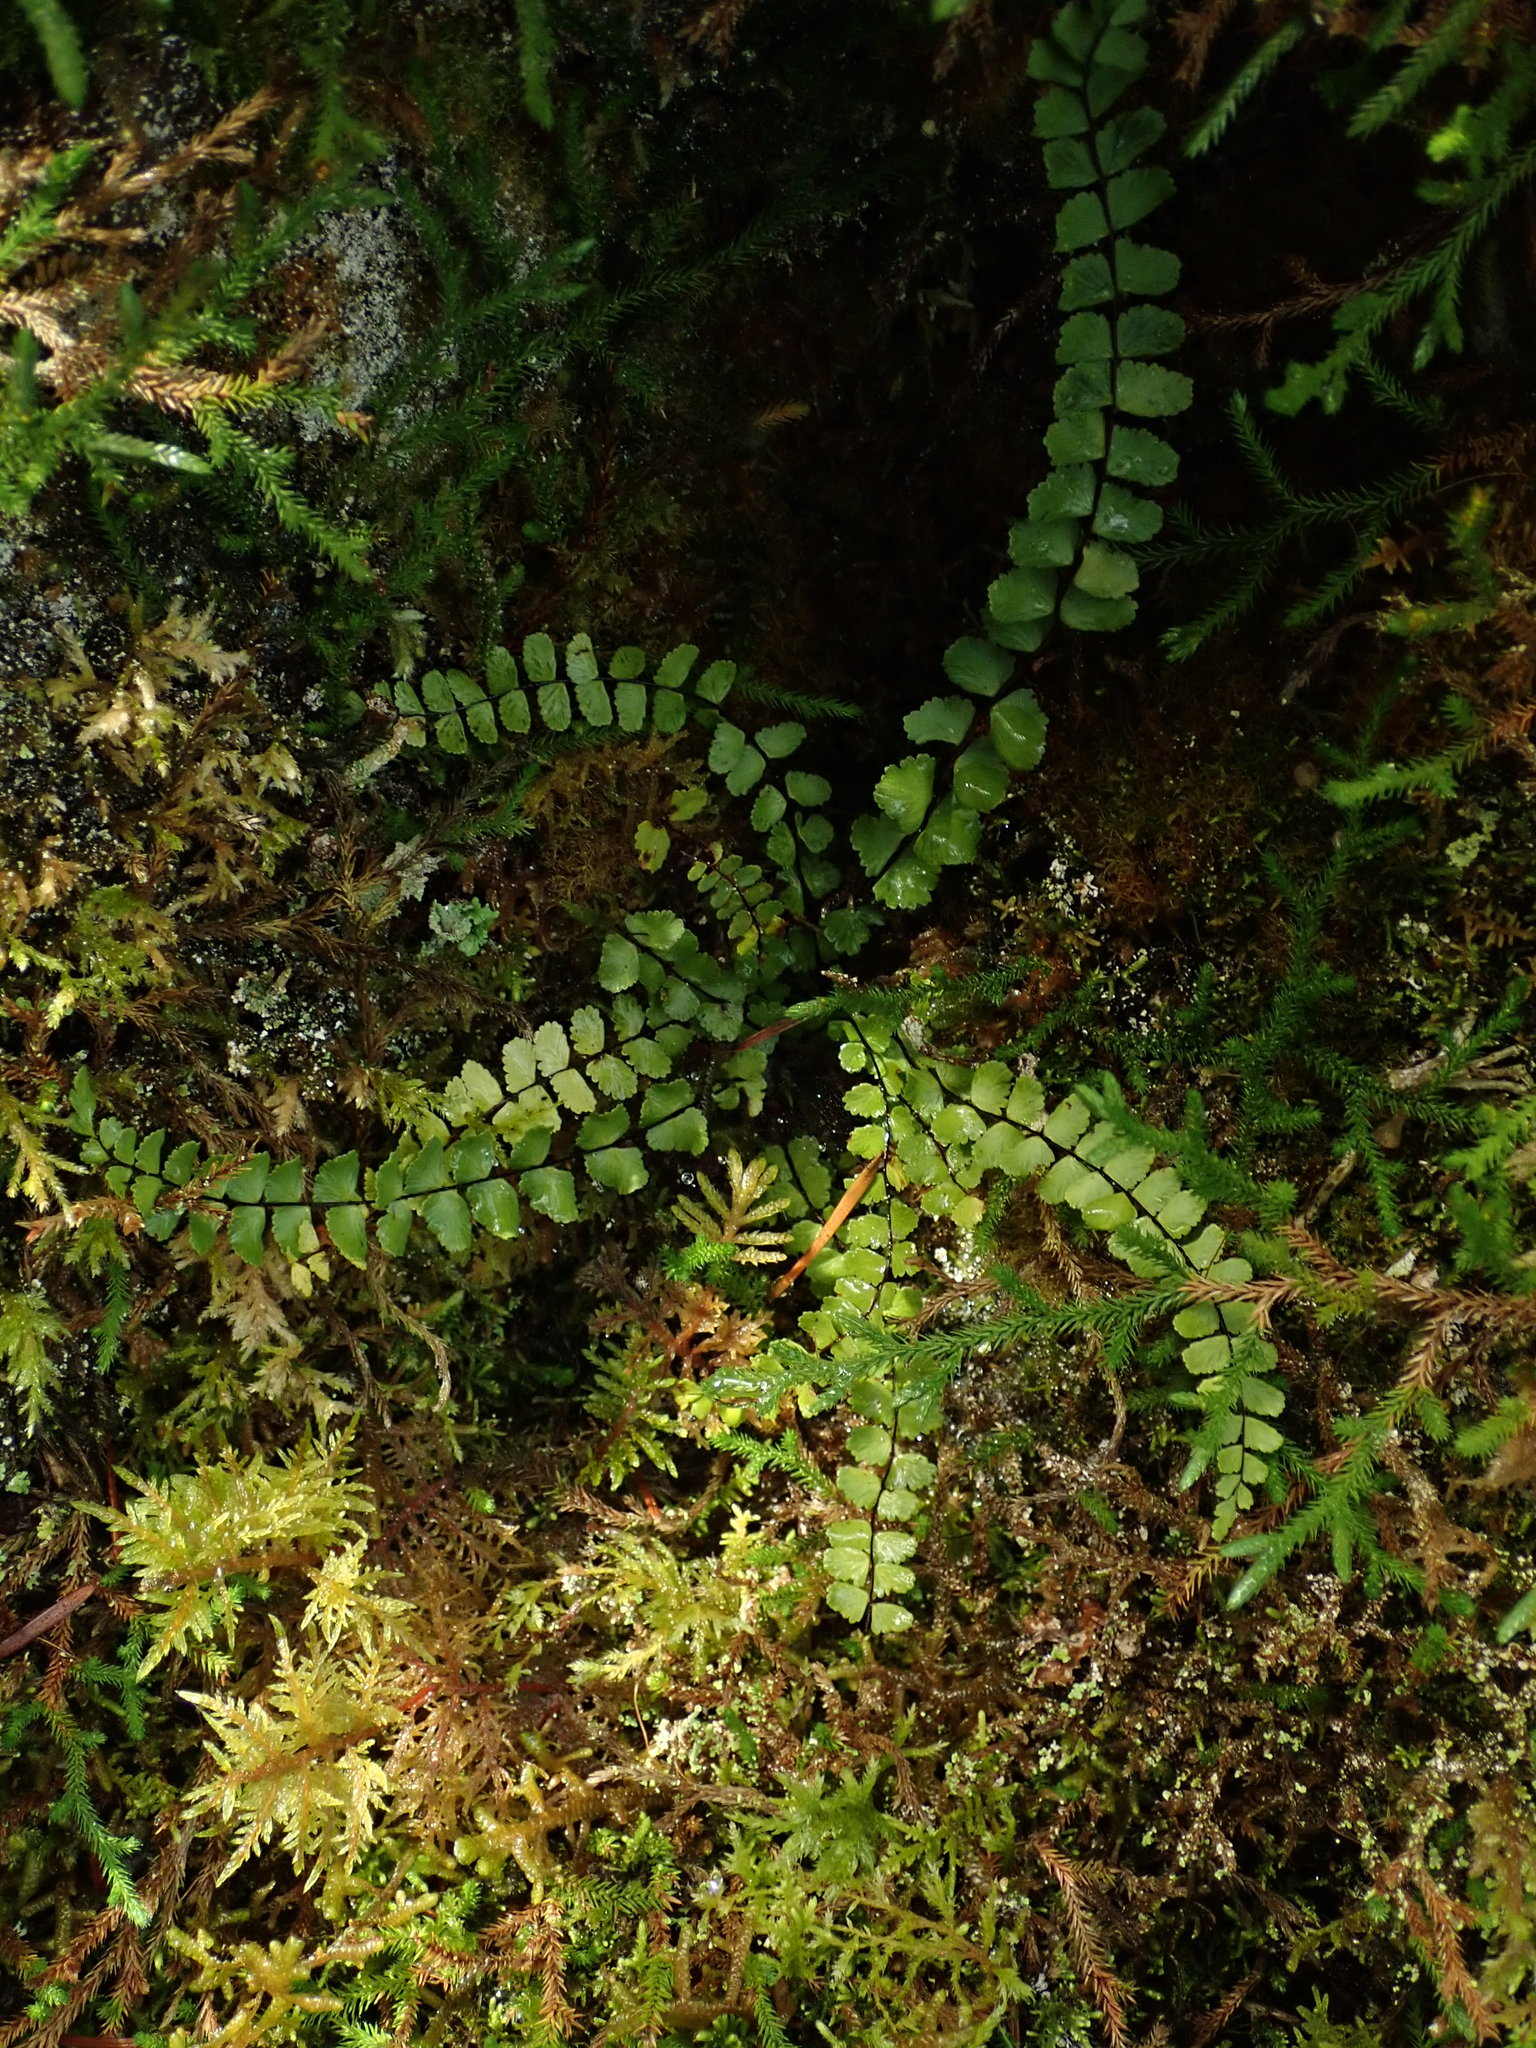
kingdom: Plantae
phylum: Tracheophyta
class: Polypodiopsida
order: Polypodiales
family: Aspleniaceae
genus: Asplenium
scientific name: Asplenium trichomanes
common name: Maidenhair spleenwort
